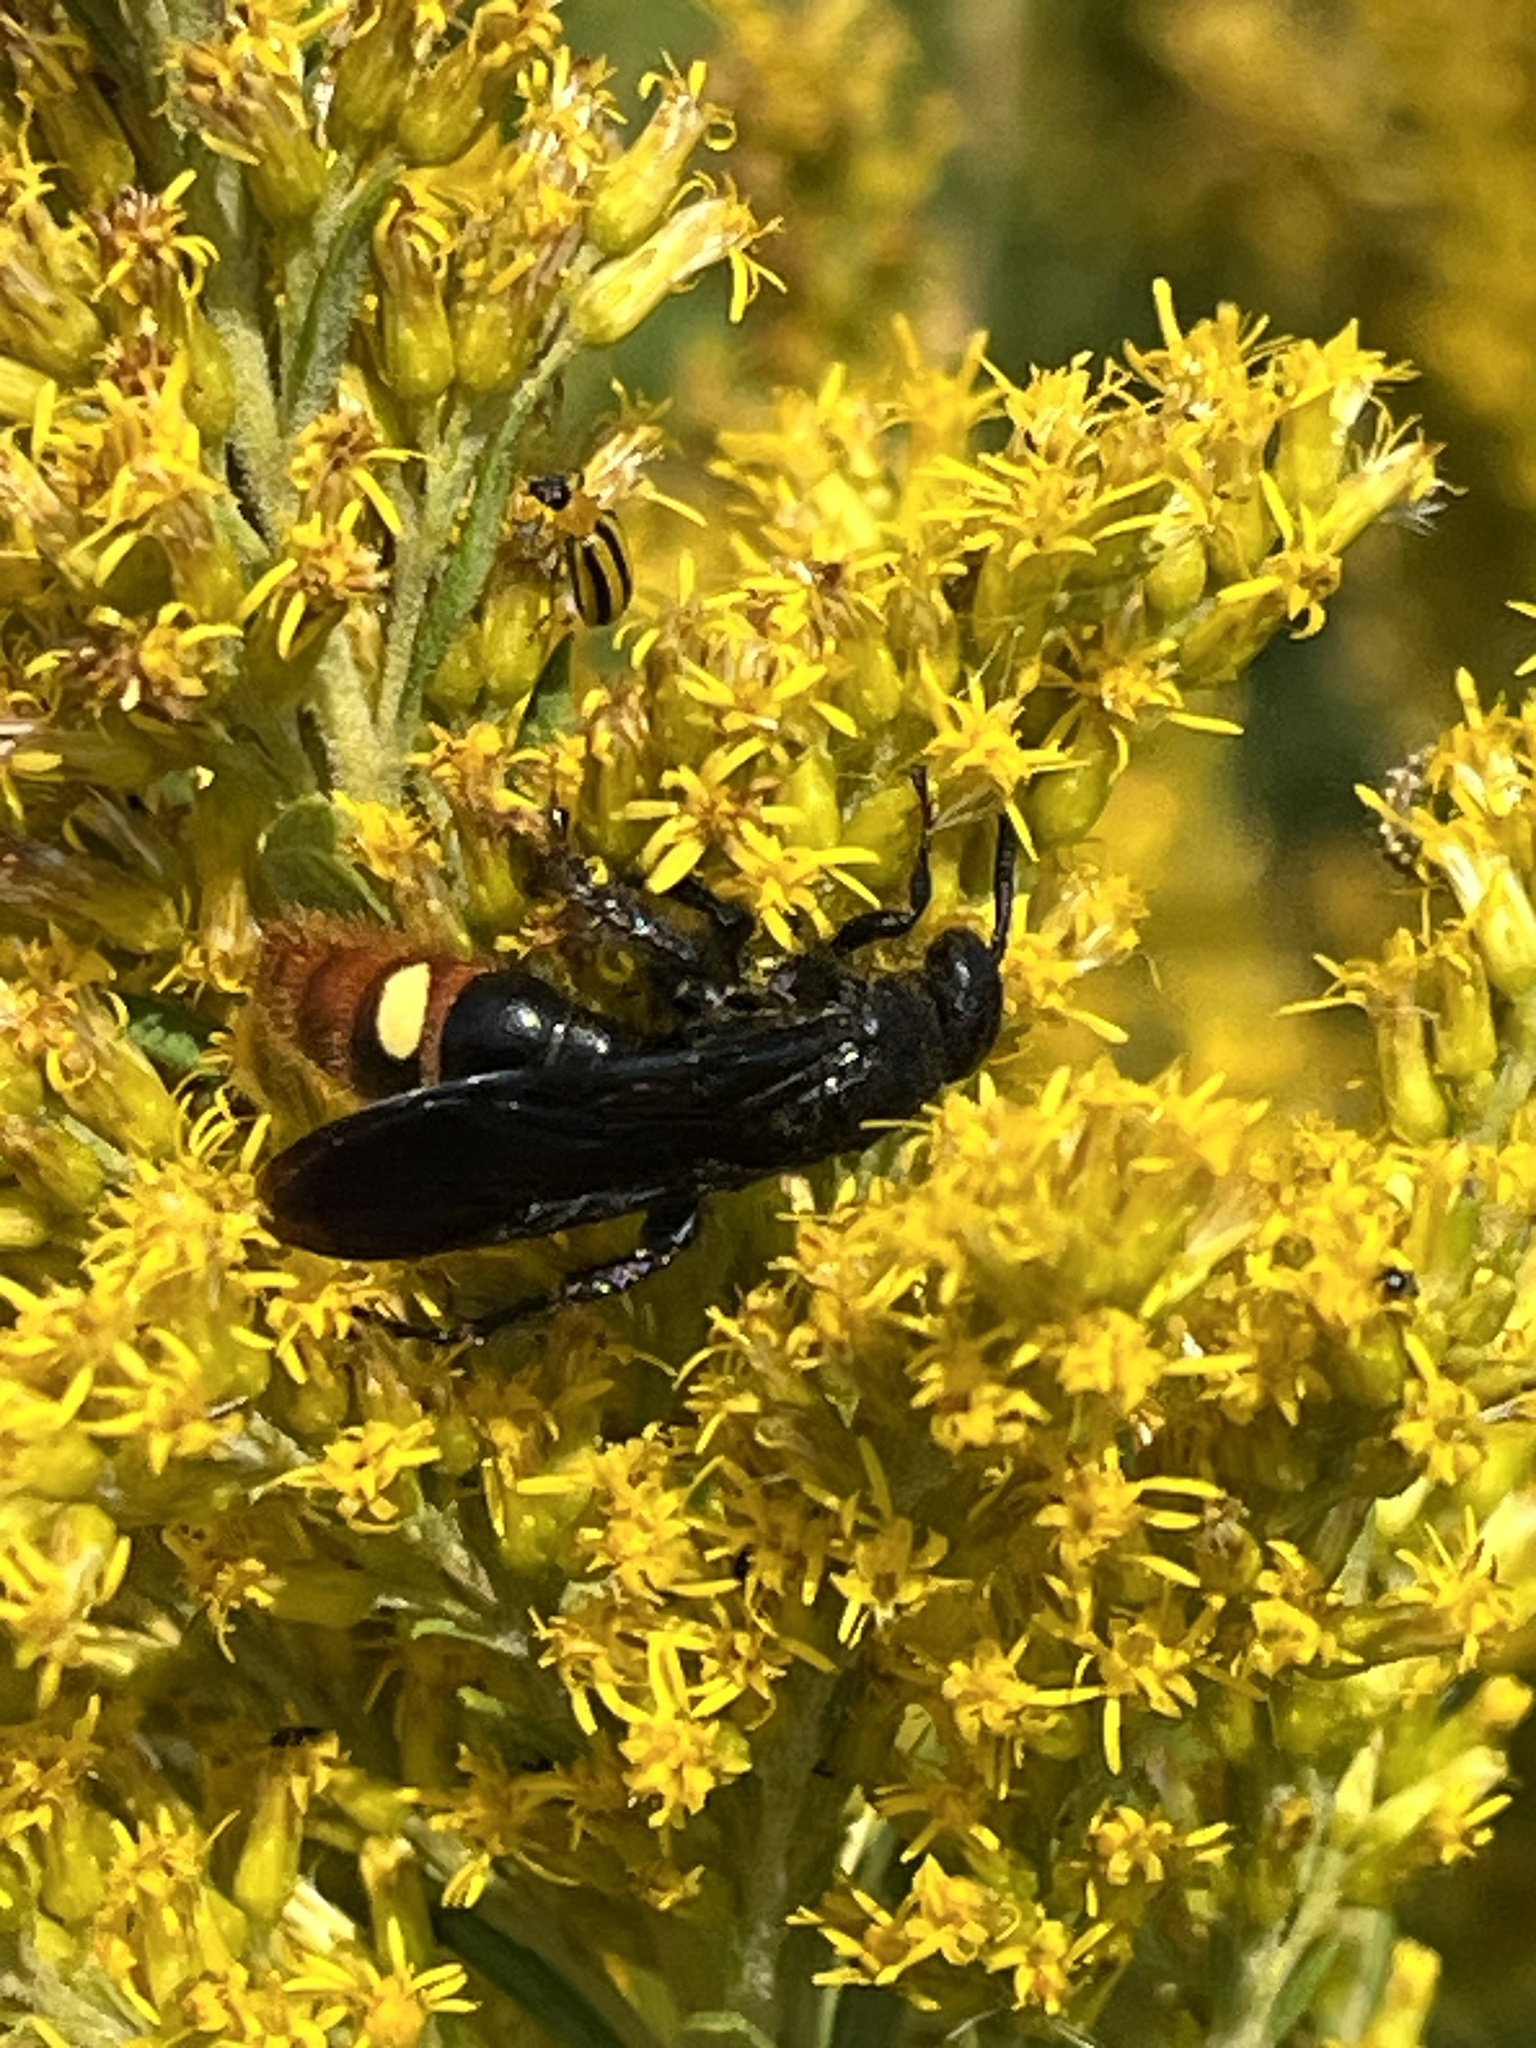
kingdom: Animalia
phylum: Arthropoda
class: Insecta
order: Hymenoptera
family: Scoliidae
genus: Scolia
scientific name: Scolia dubia
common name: Blue-winged scoliid wasp
